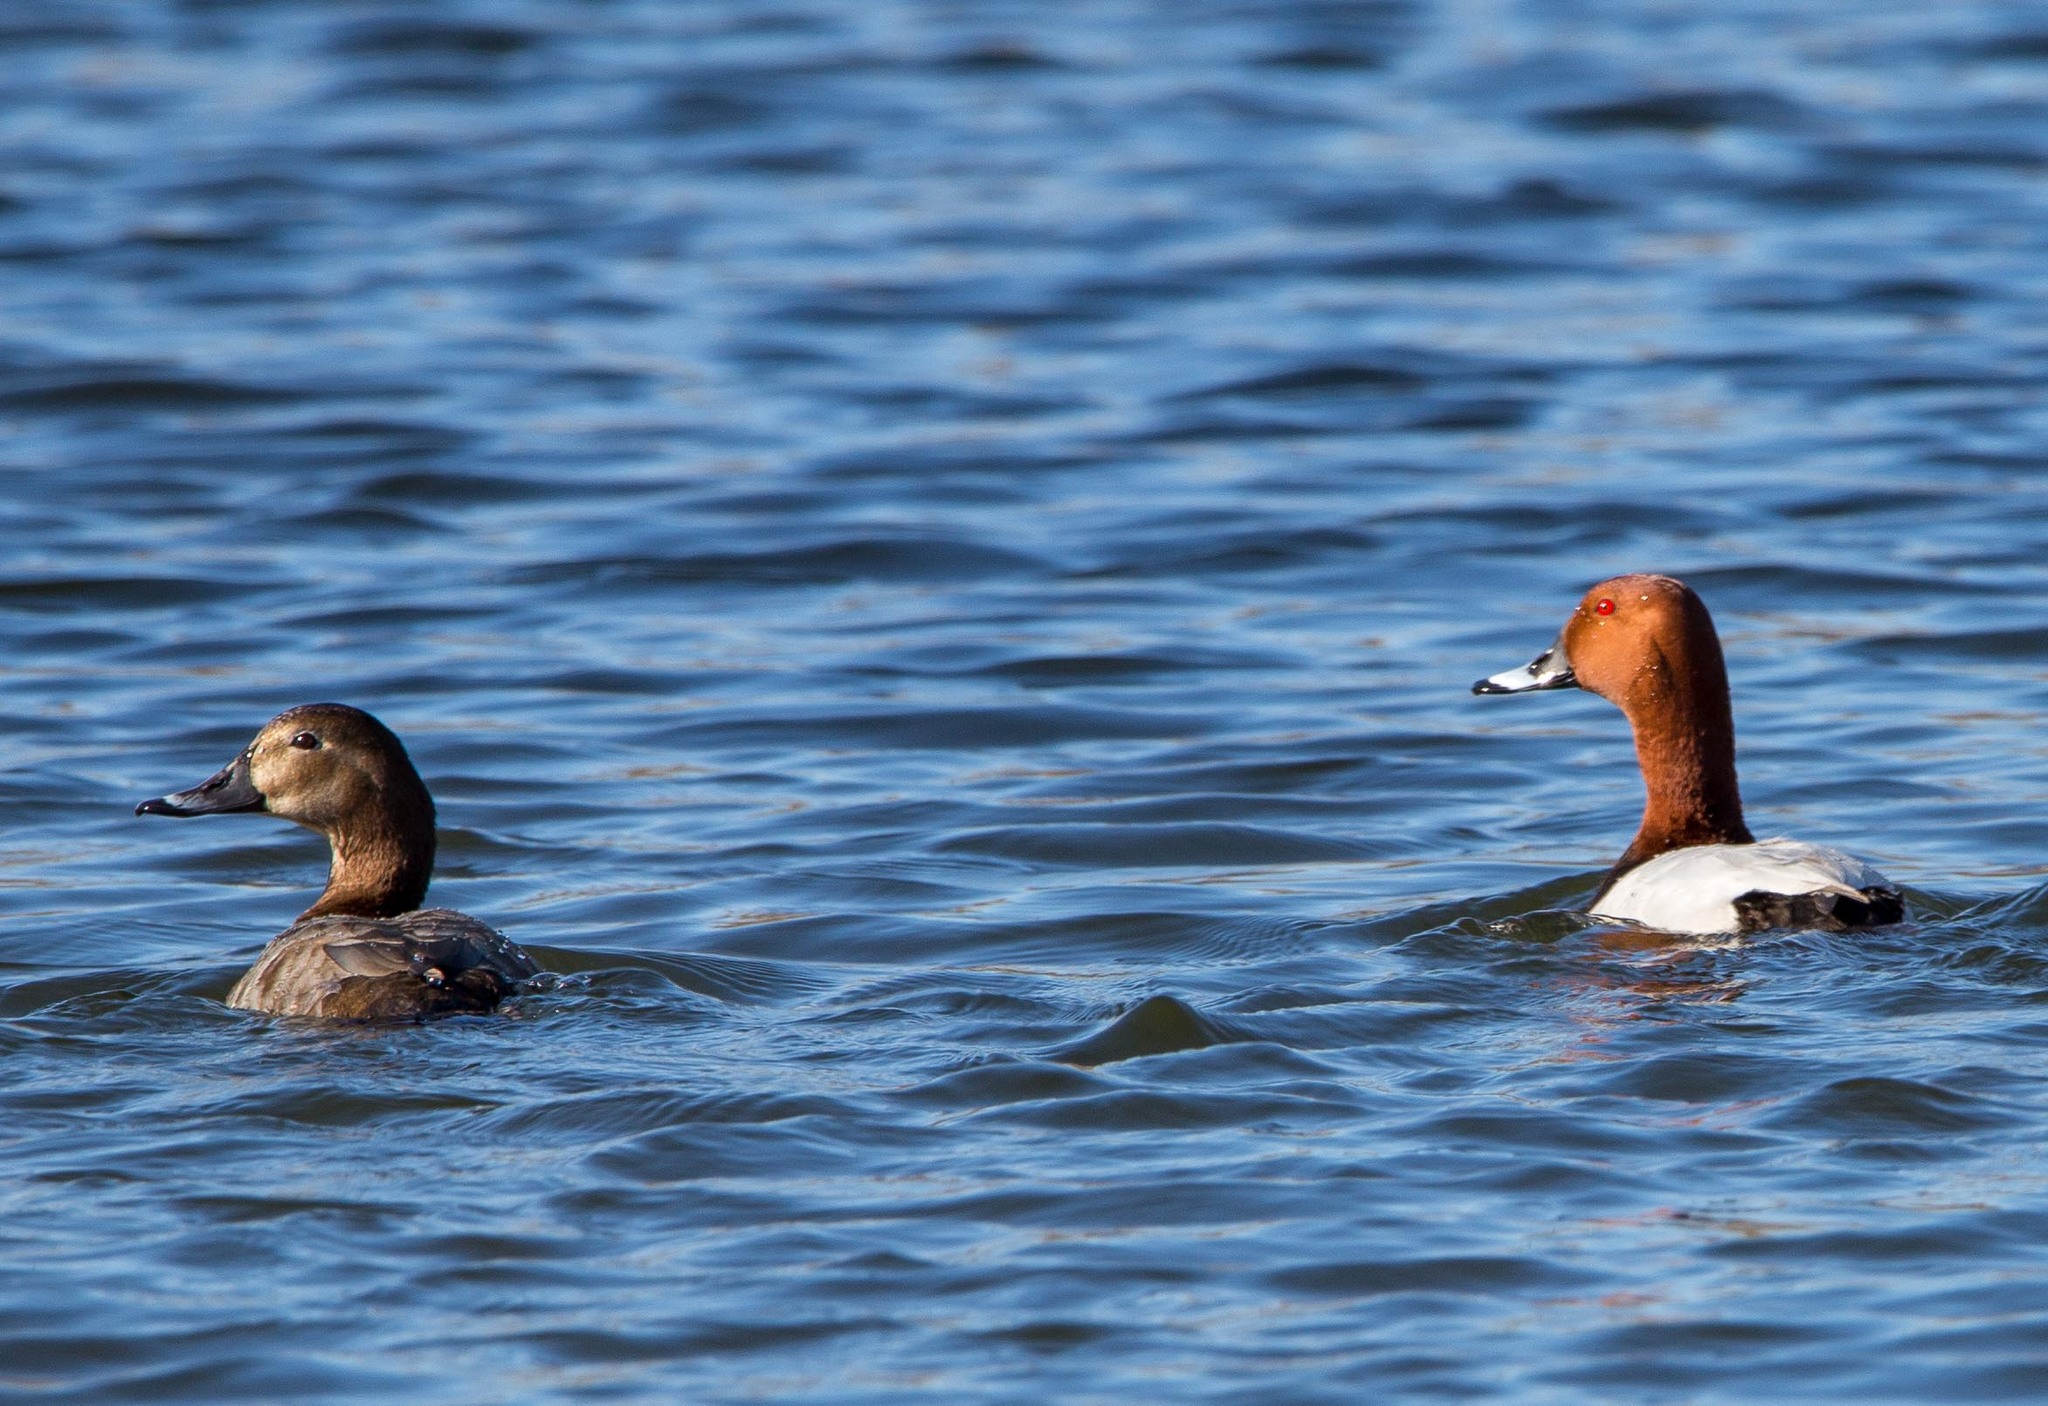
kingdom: Animalia
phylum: Chordata
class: Aves
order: Anseriformes
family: Anatidae
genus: Aythya
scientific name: Aythya ferina
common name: Common pochard
